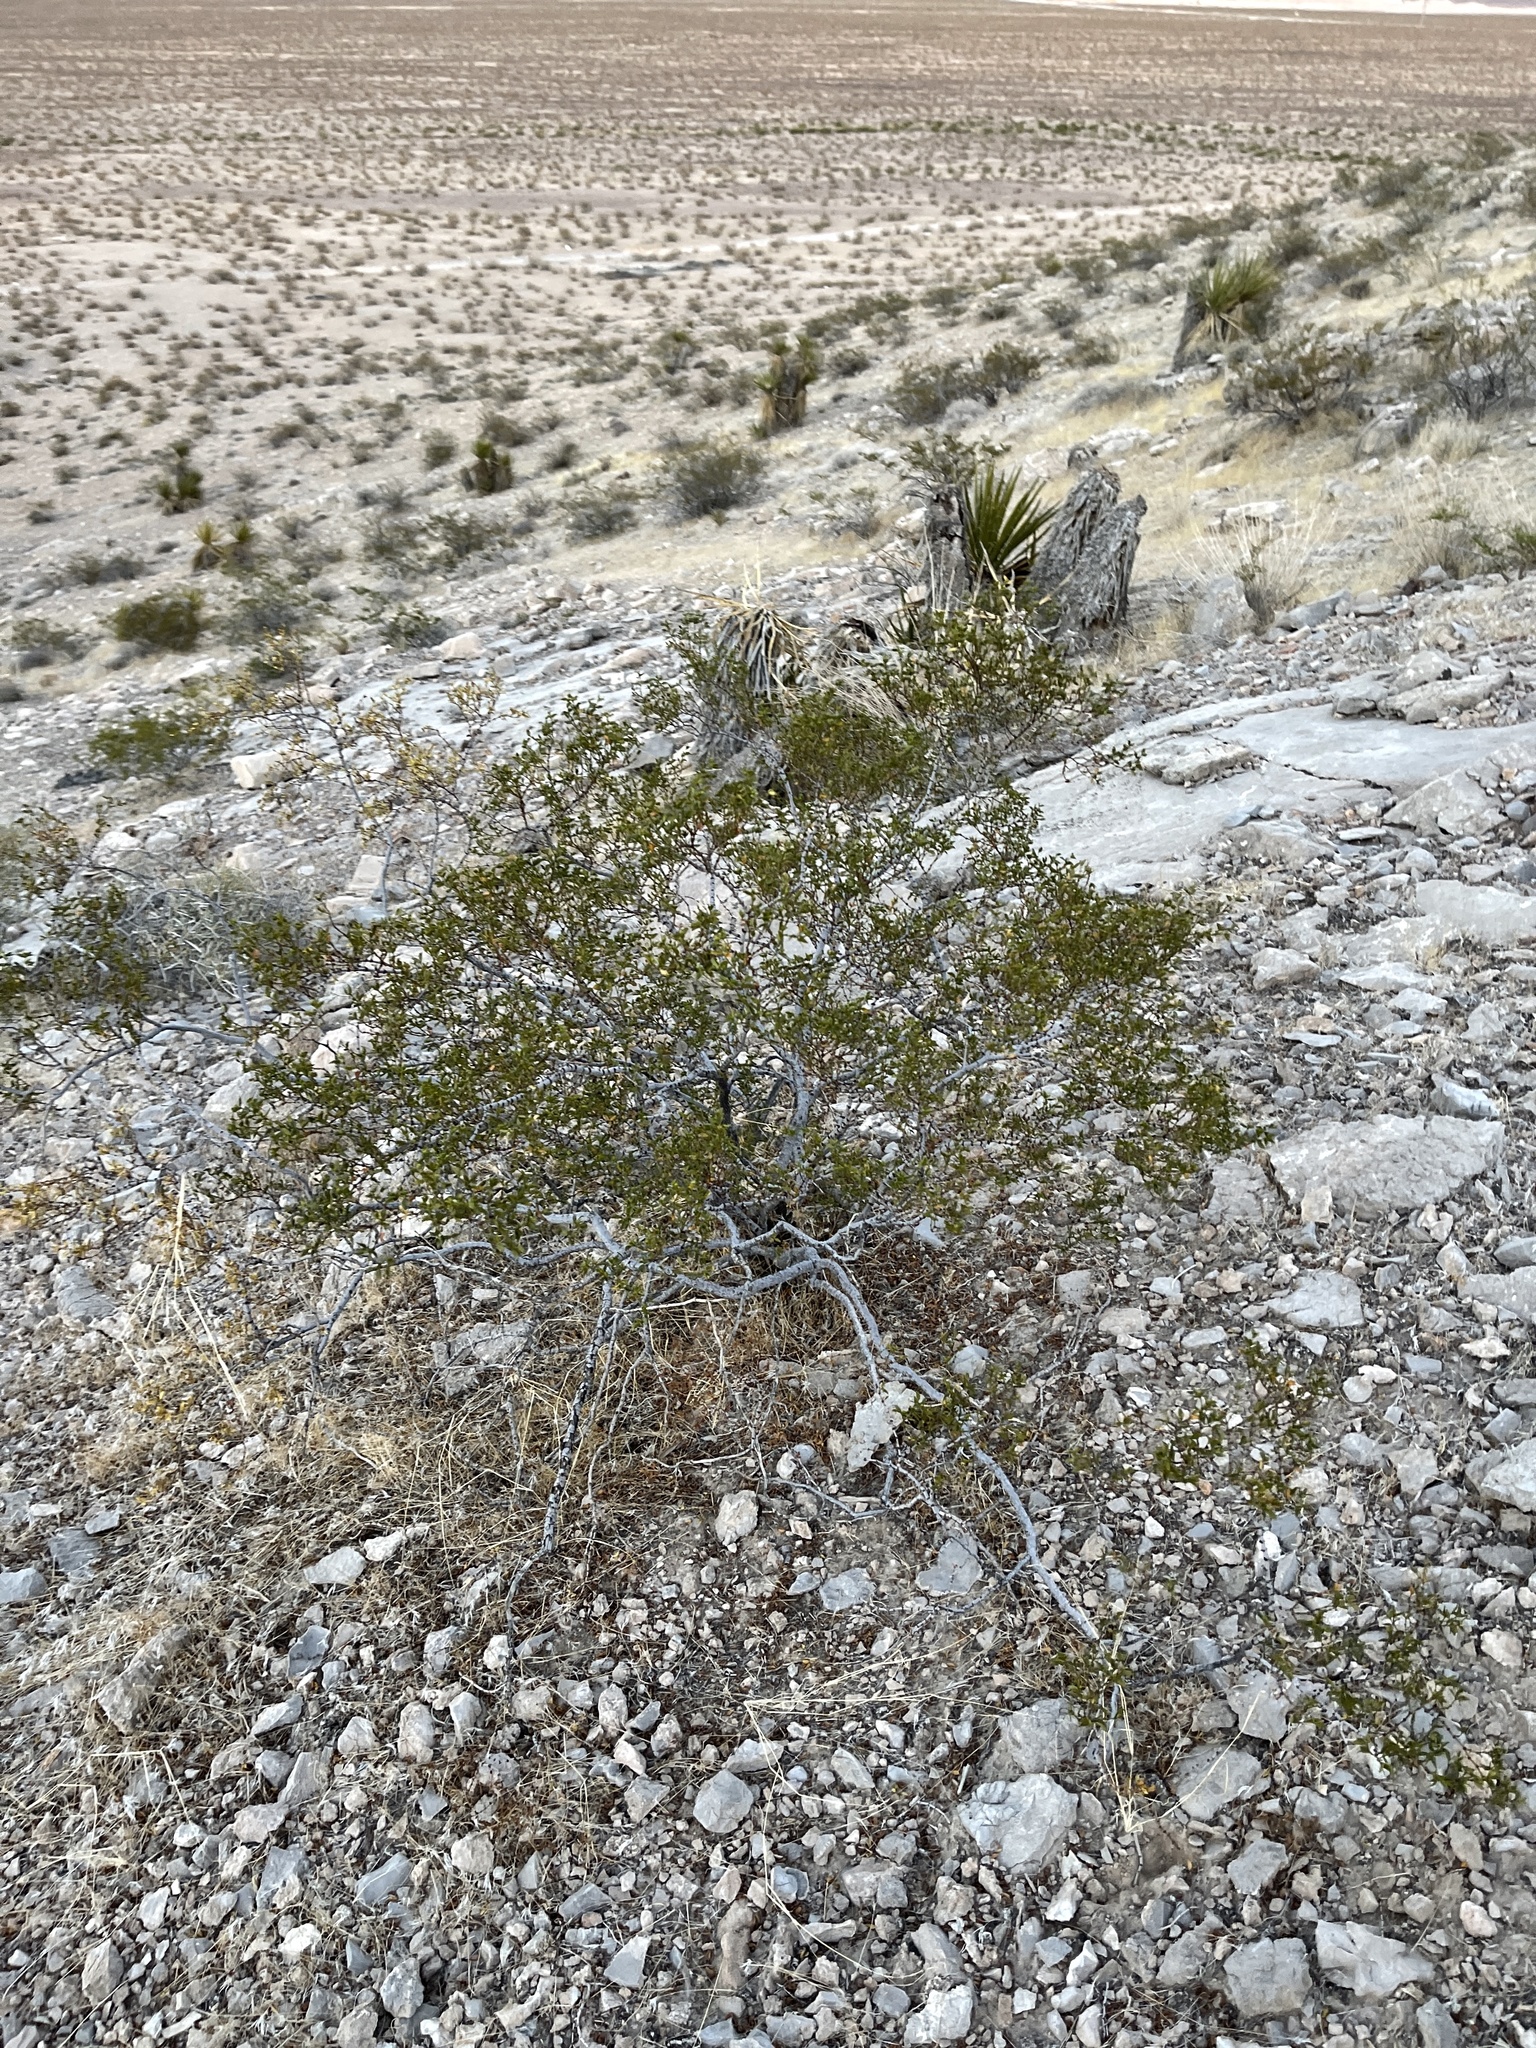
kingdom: Plantae
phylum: Tracheophyta
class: Magnoliopsida
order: Zygophyllales
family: Zygophyllaceae
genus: Larrea
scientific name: Larrea tridentata
